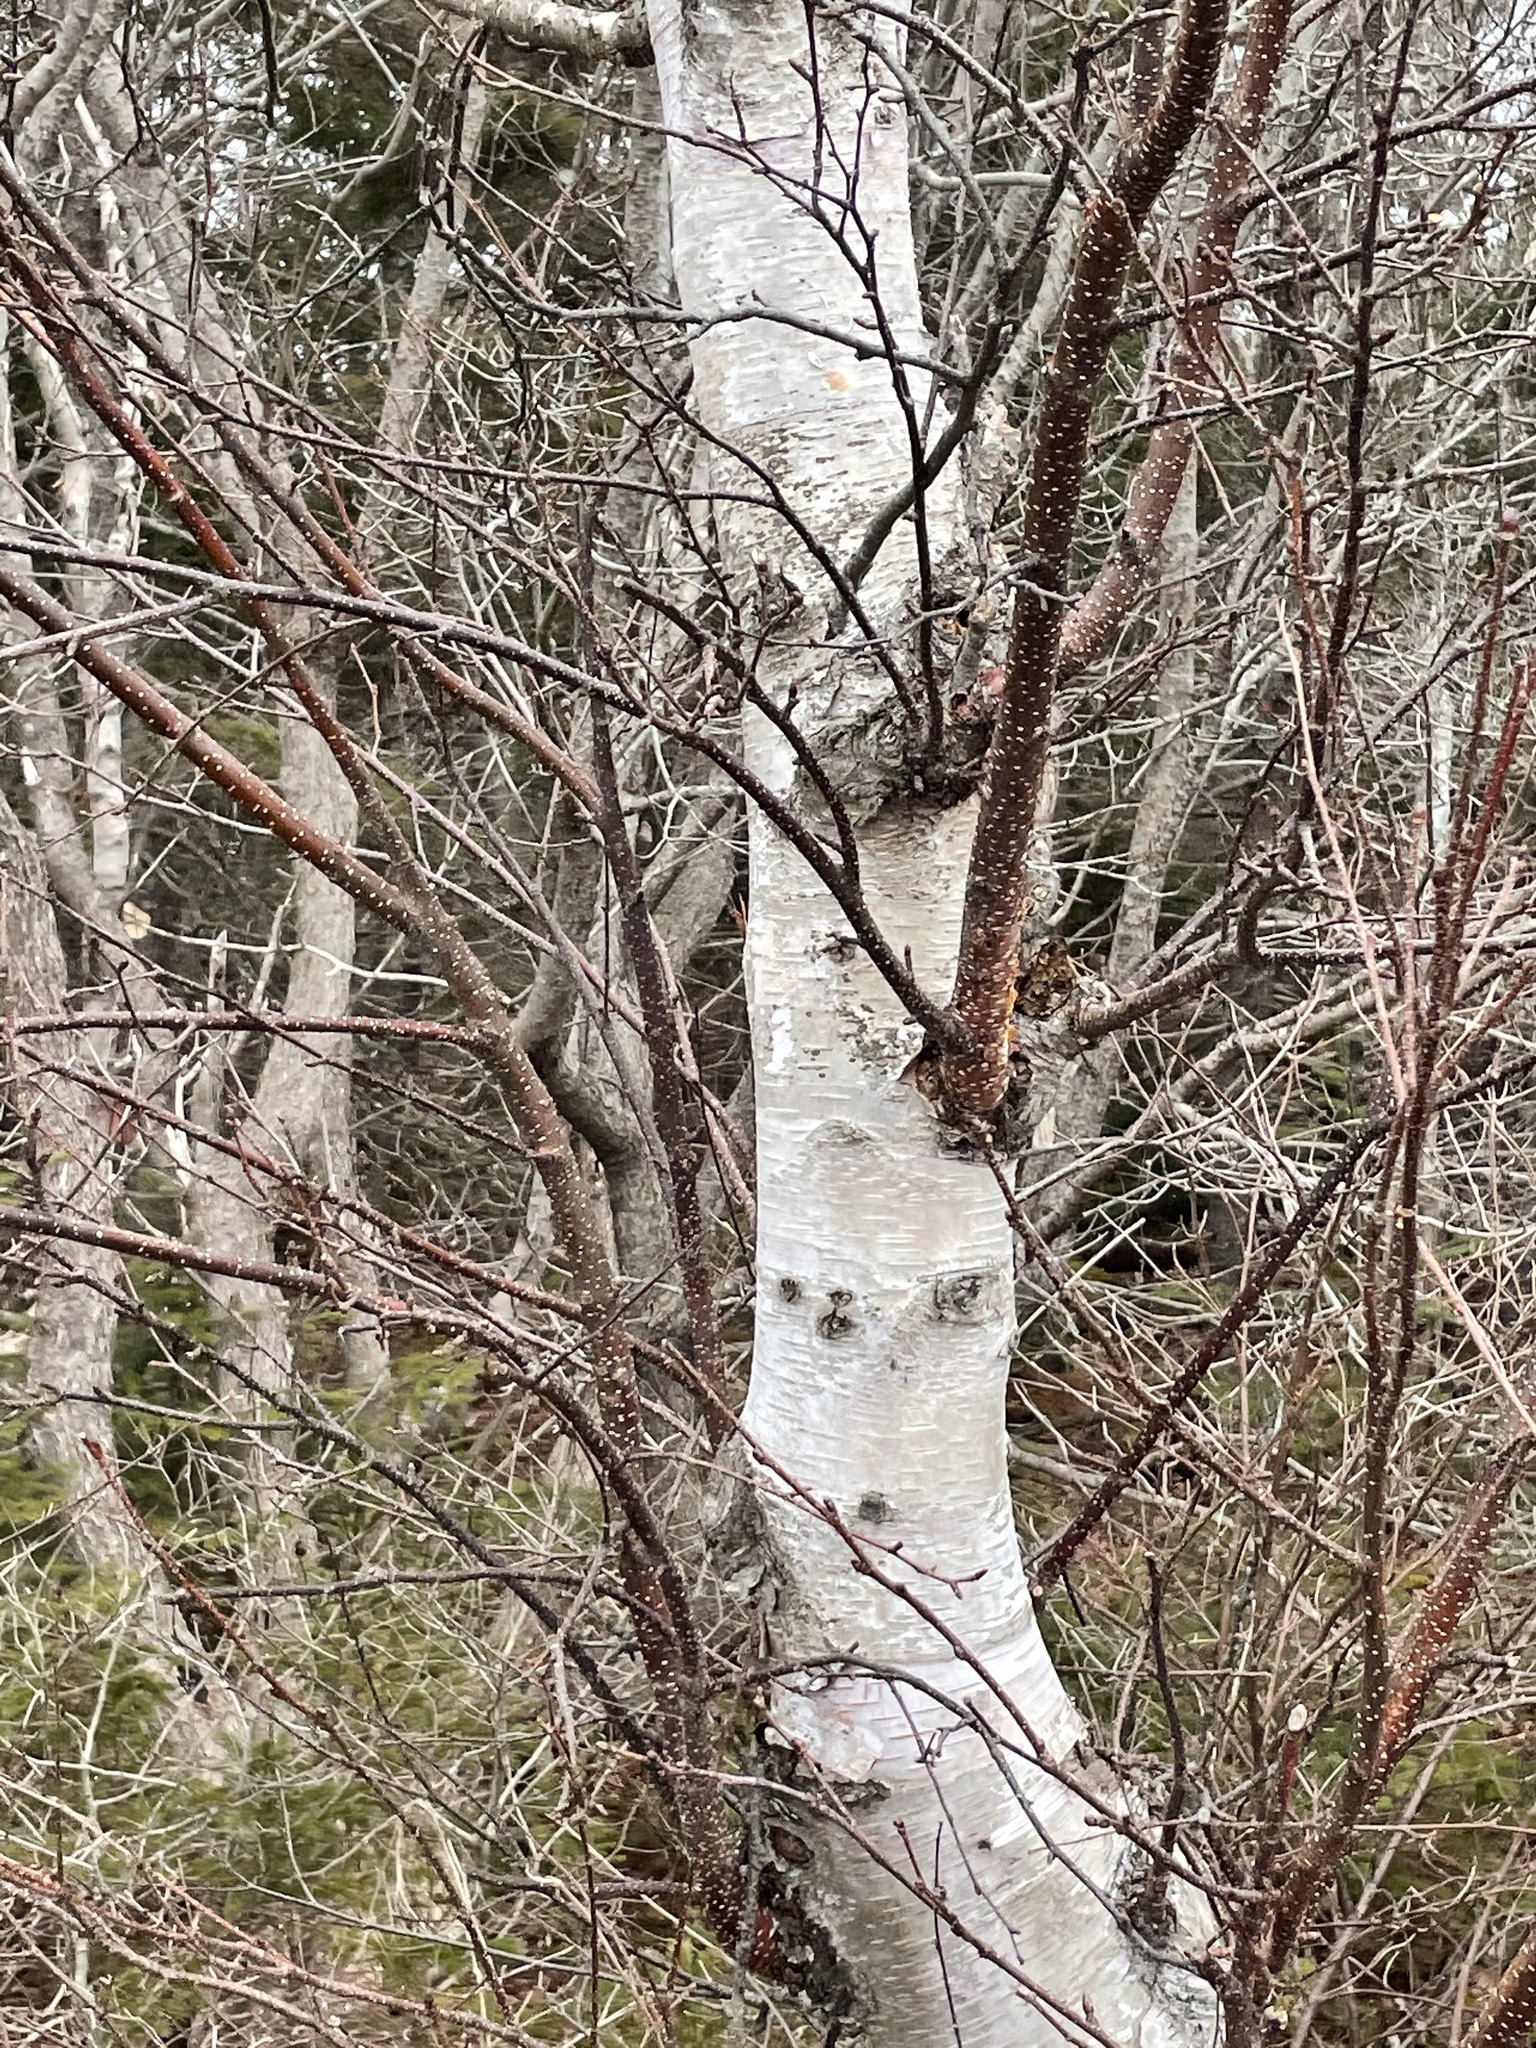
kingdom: Plantae
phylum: Tracheophyta
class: Magnoliopsida
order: Fagales
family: Betulaceae
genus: Betula
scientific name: Betula papyrifera
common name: Paper birch
